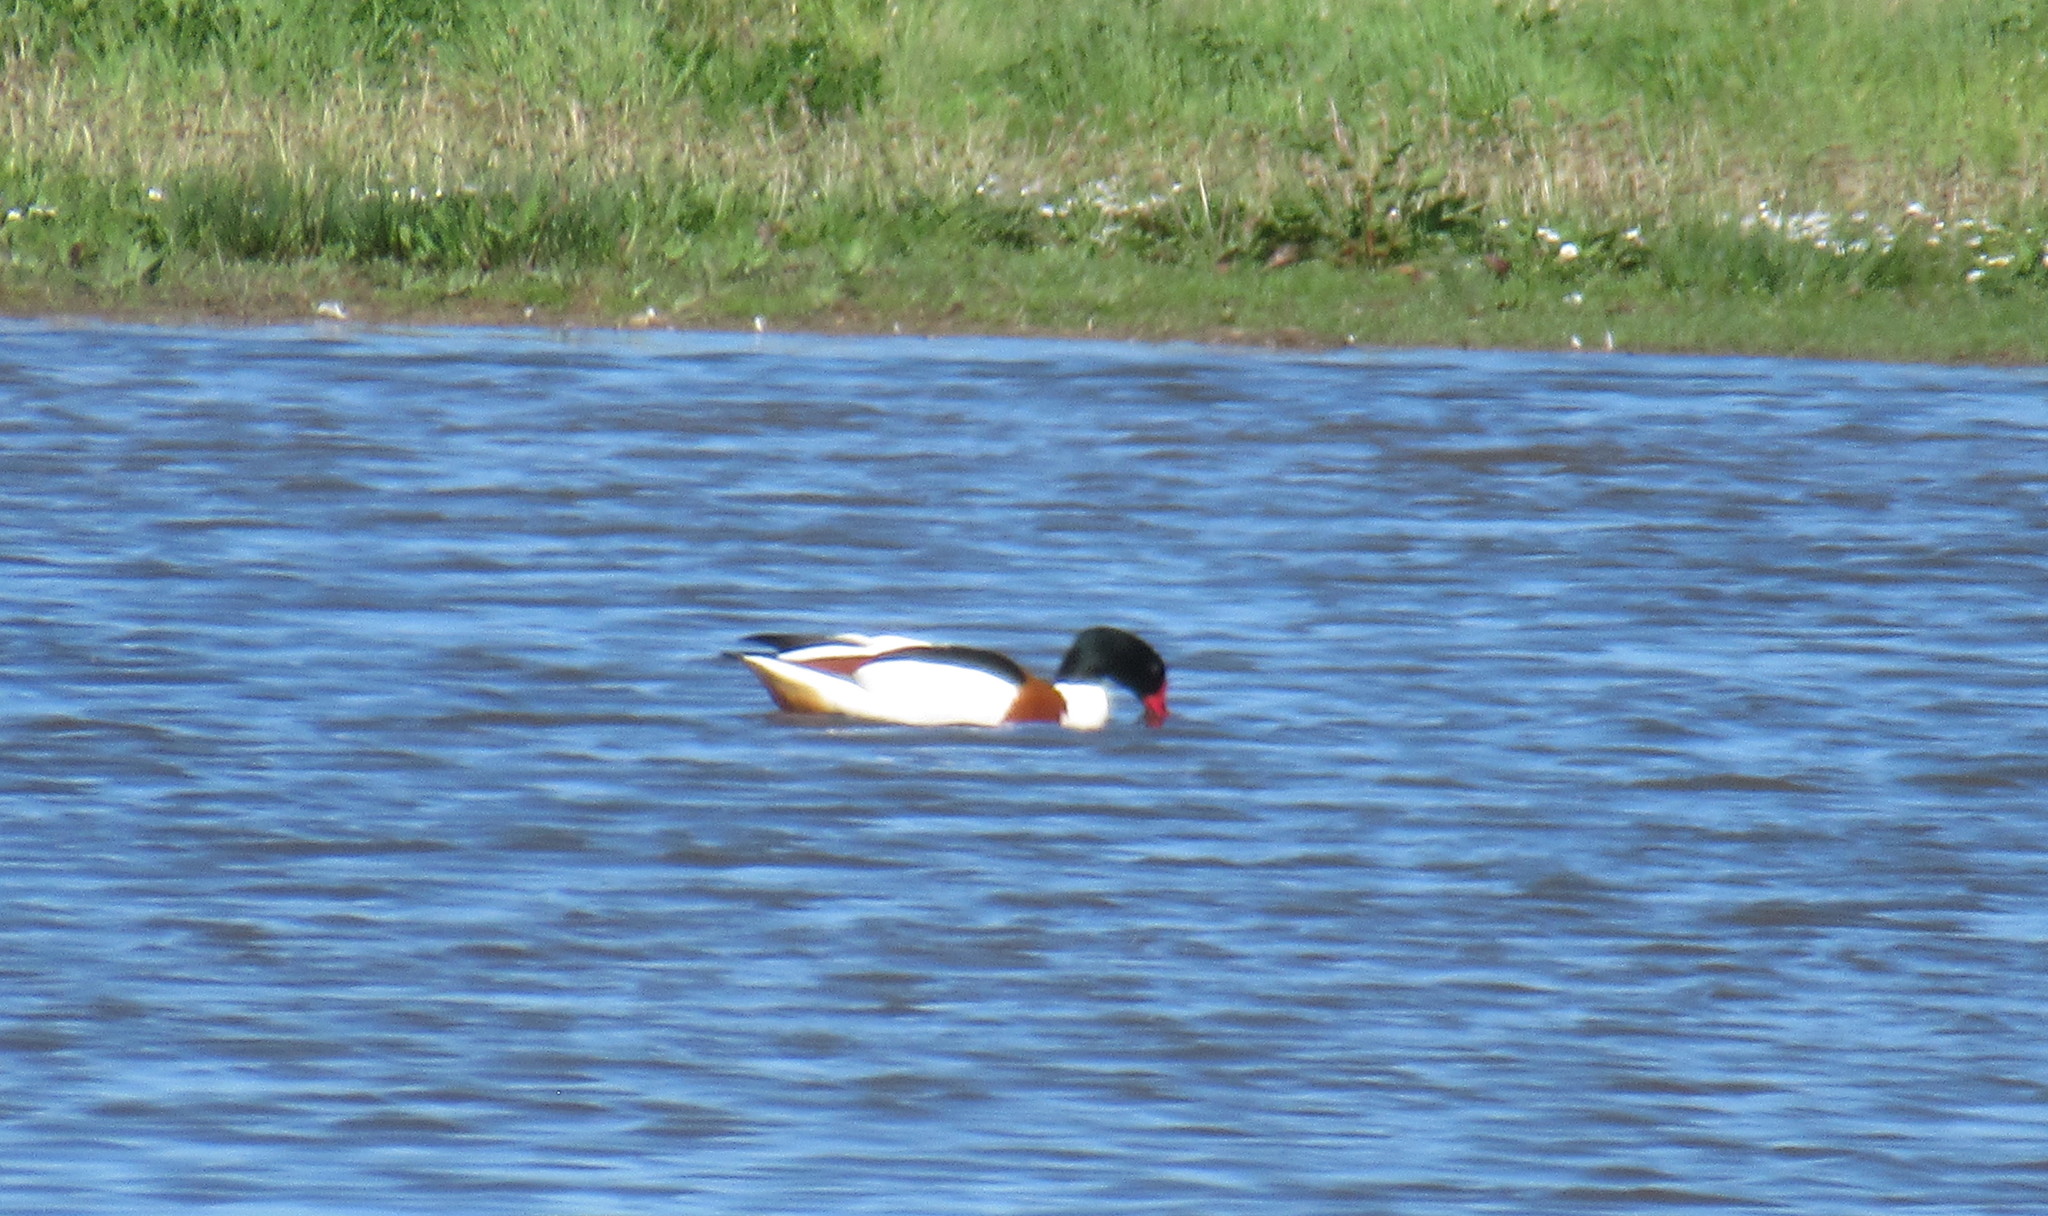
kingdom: Animalia
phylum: Chordata
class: Aves
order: Anseriformes
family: Anatidae
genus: Tadorna
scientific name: Tadorna tadorna
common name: Common shelduck
